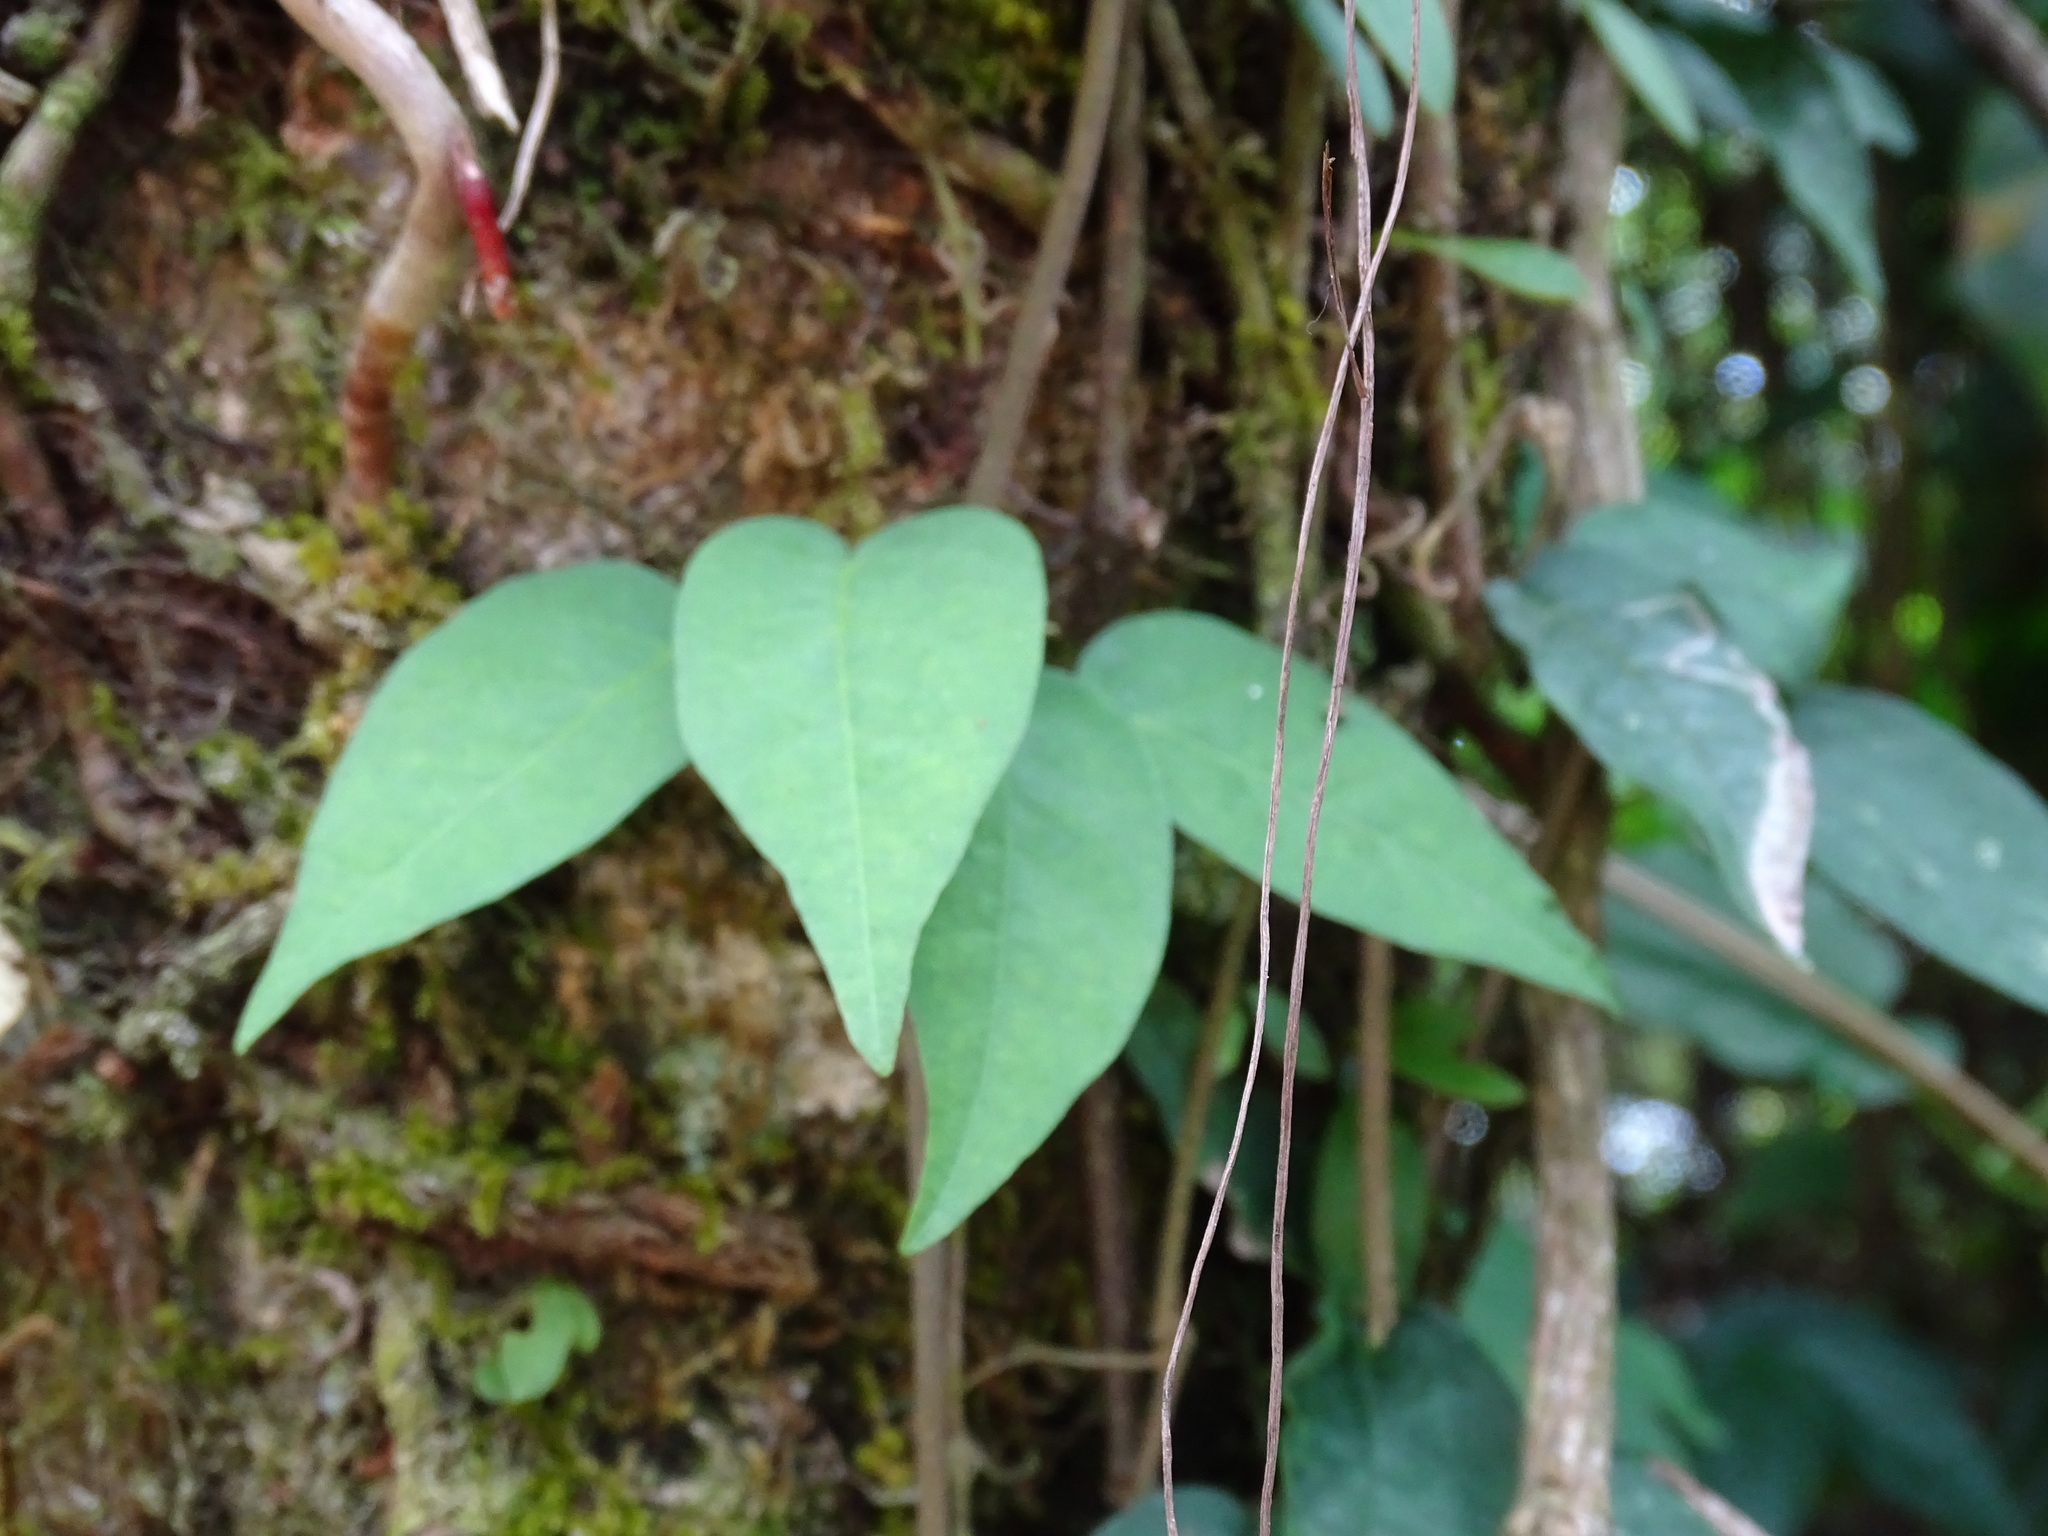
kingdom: Plantae
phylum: Tracheophyta
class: Magnoliopsida
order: Lamiales
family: Bignoniaceae
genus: Dolichandra
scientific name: Dolichandra unguis-cati
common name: Catclaw vine
